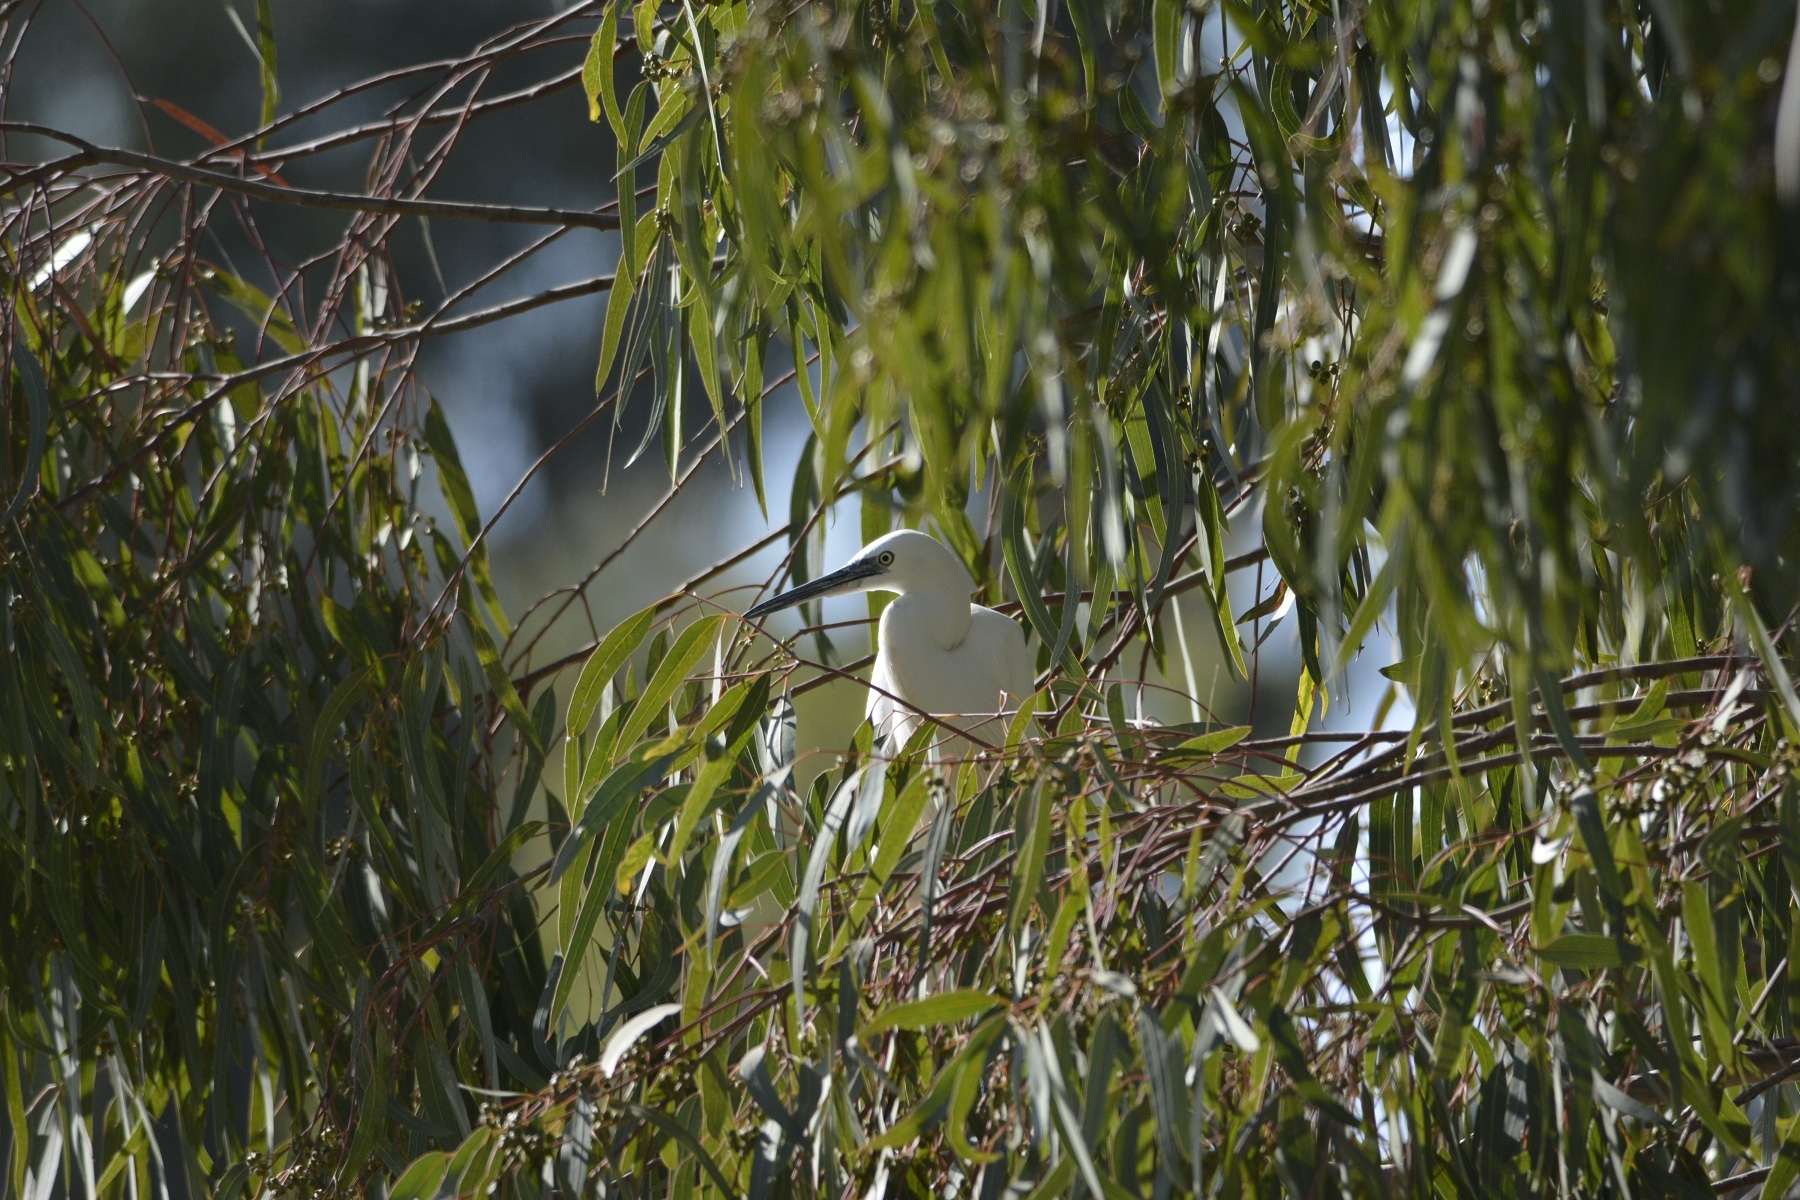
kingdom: Animalia
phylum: Chordata
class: Aves
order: Pelecaniformes
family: Ardeidae
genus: Egretta
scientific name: Egretta garzetta
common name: Little egret
